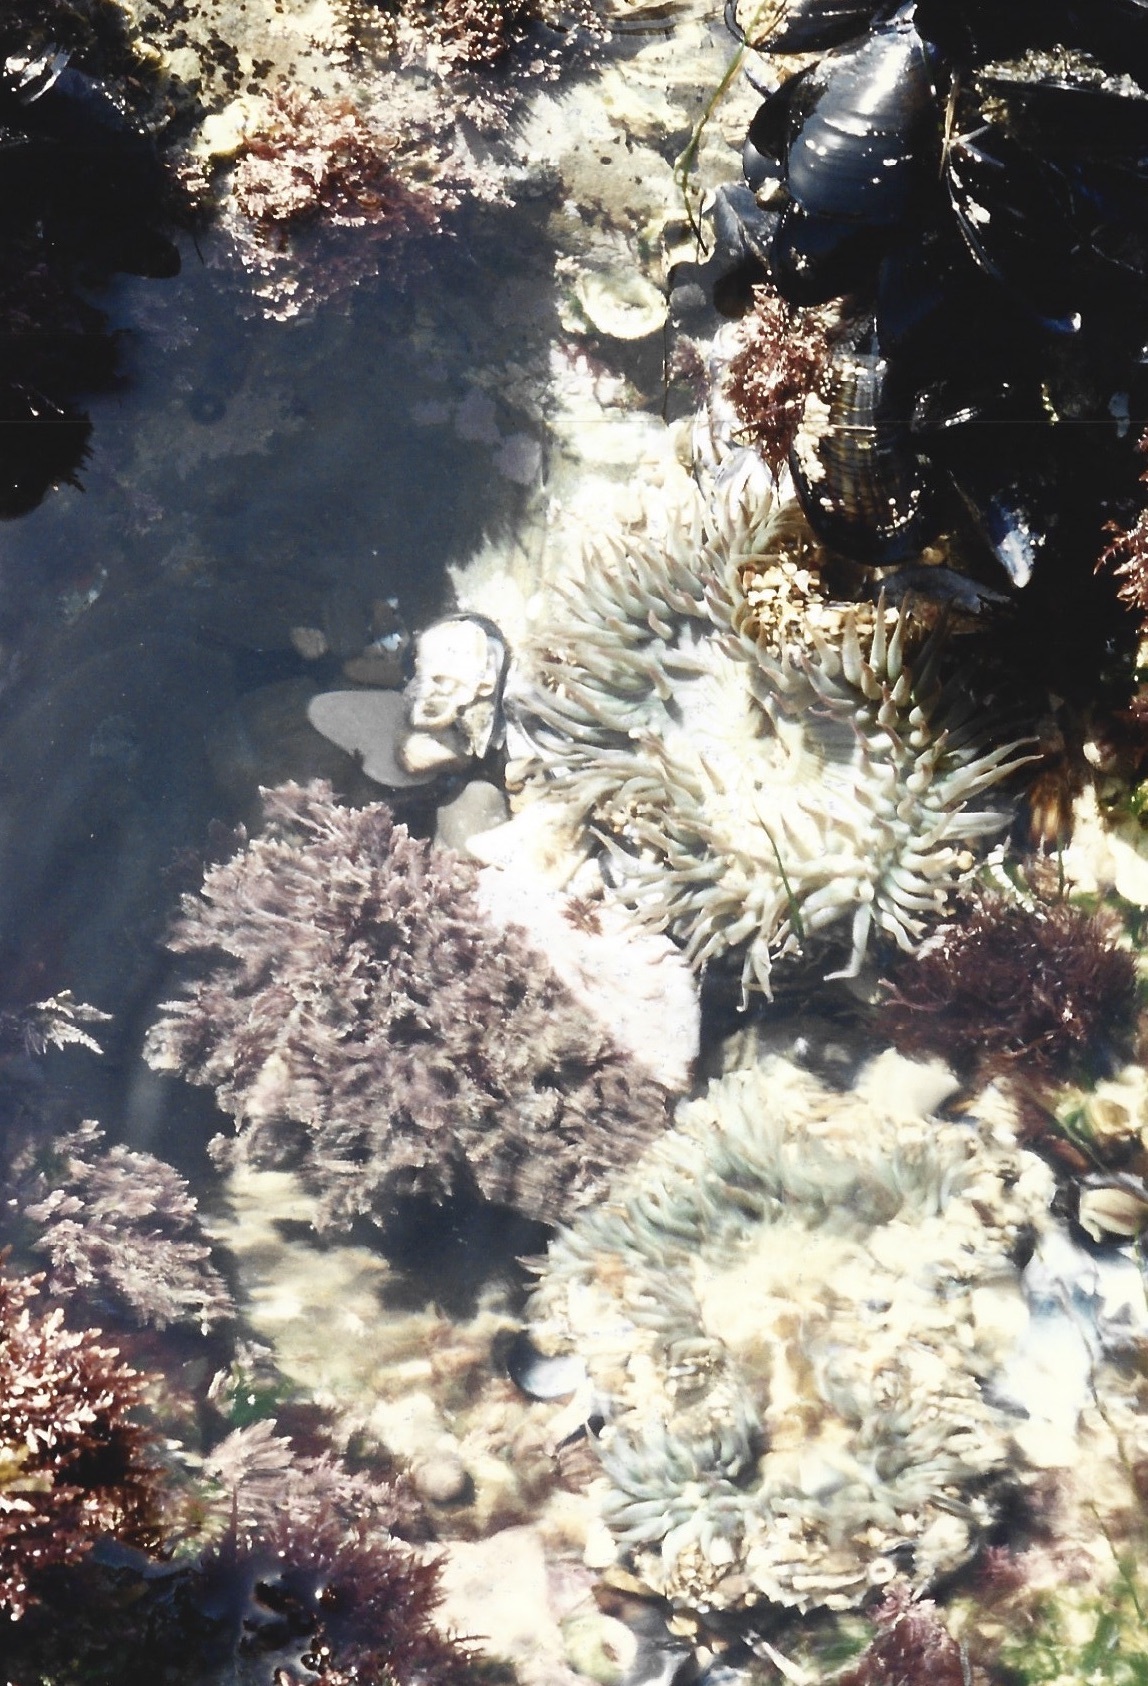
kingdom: Animalia
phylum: Cnidaria
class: Anthozoa
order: Actiniaria
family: Actiniidae
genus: Anthopleura
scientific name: Anthopleura sola
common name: Sun anemone
